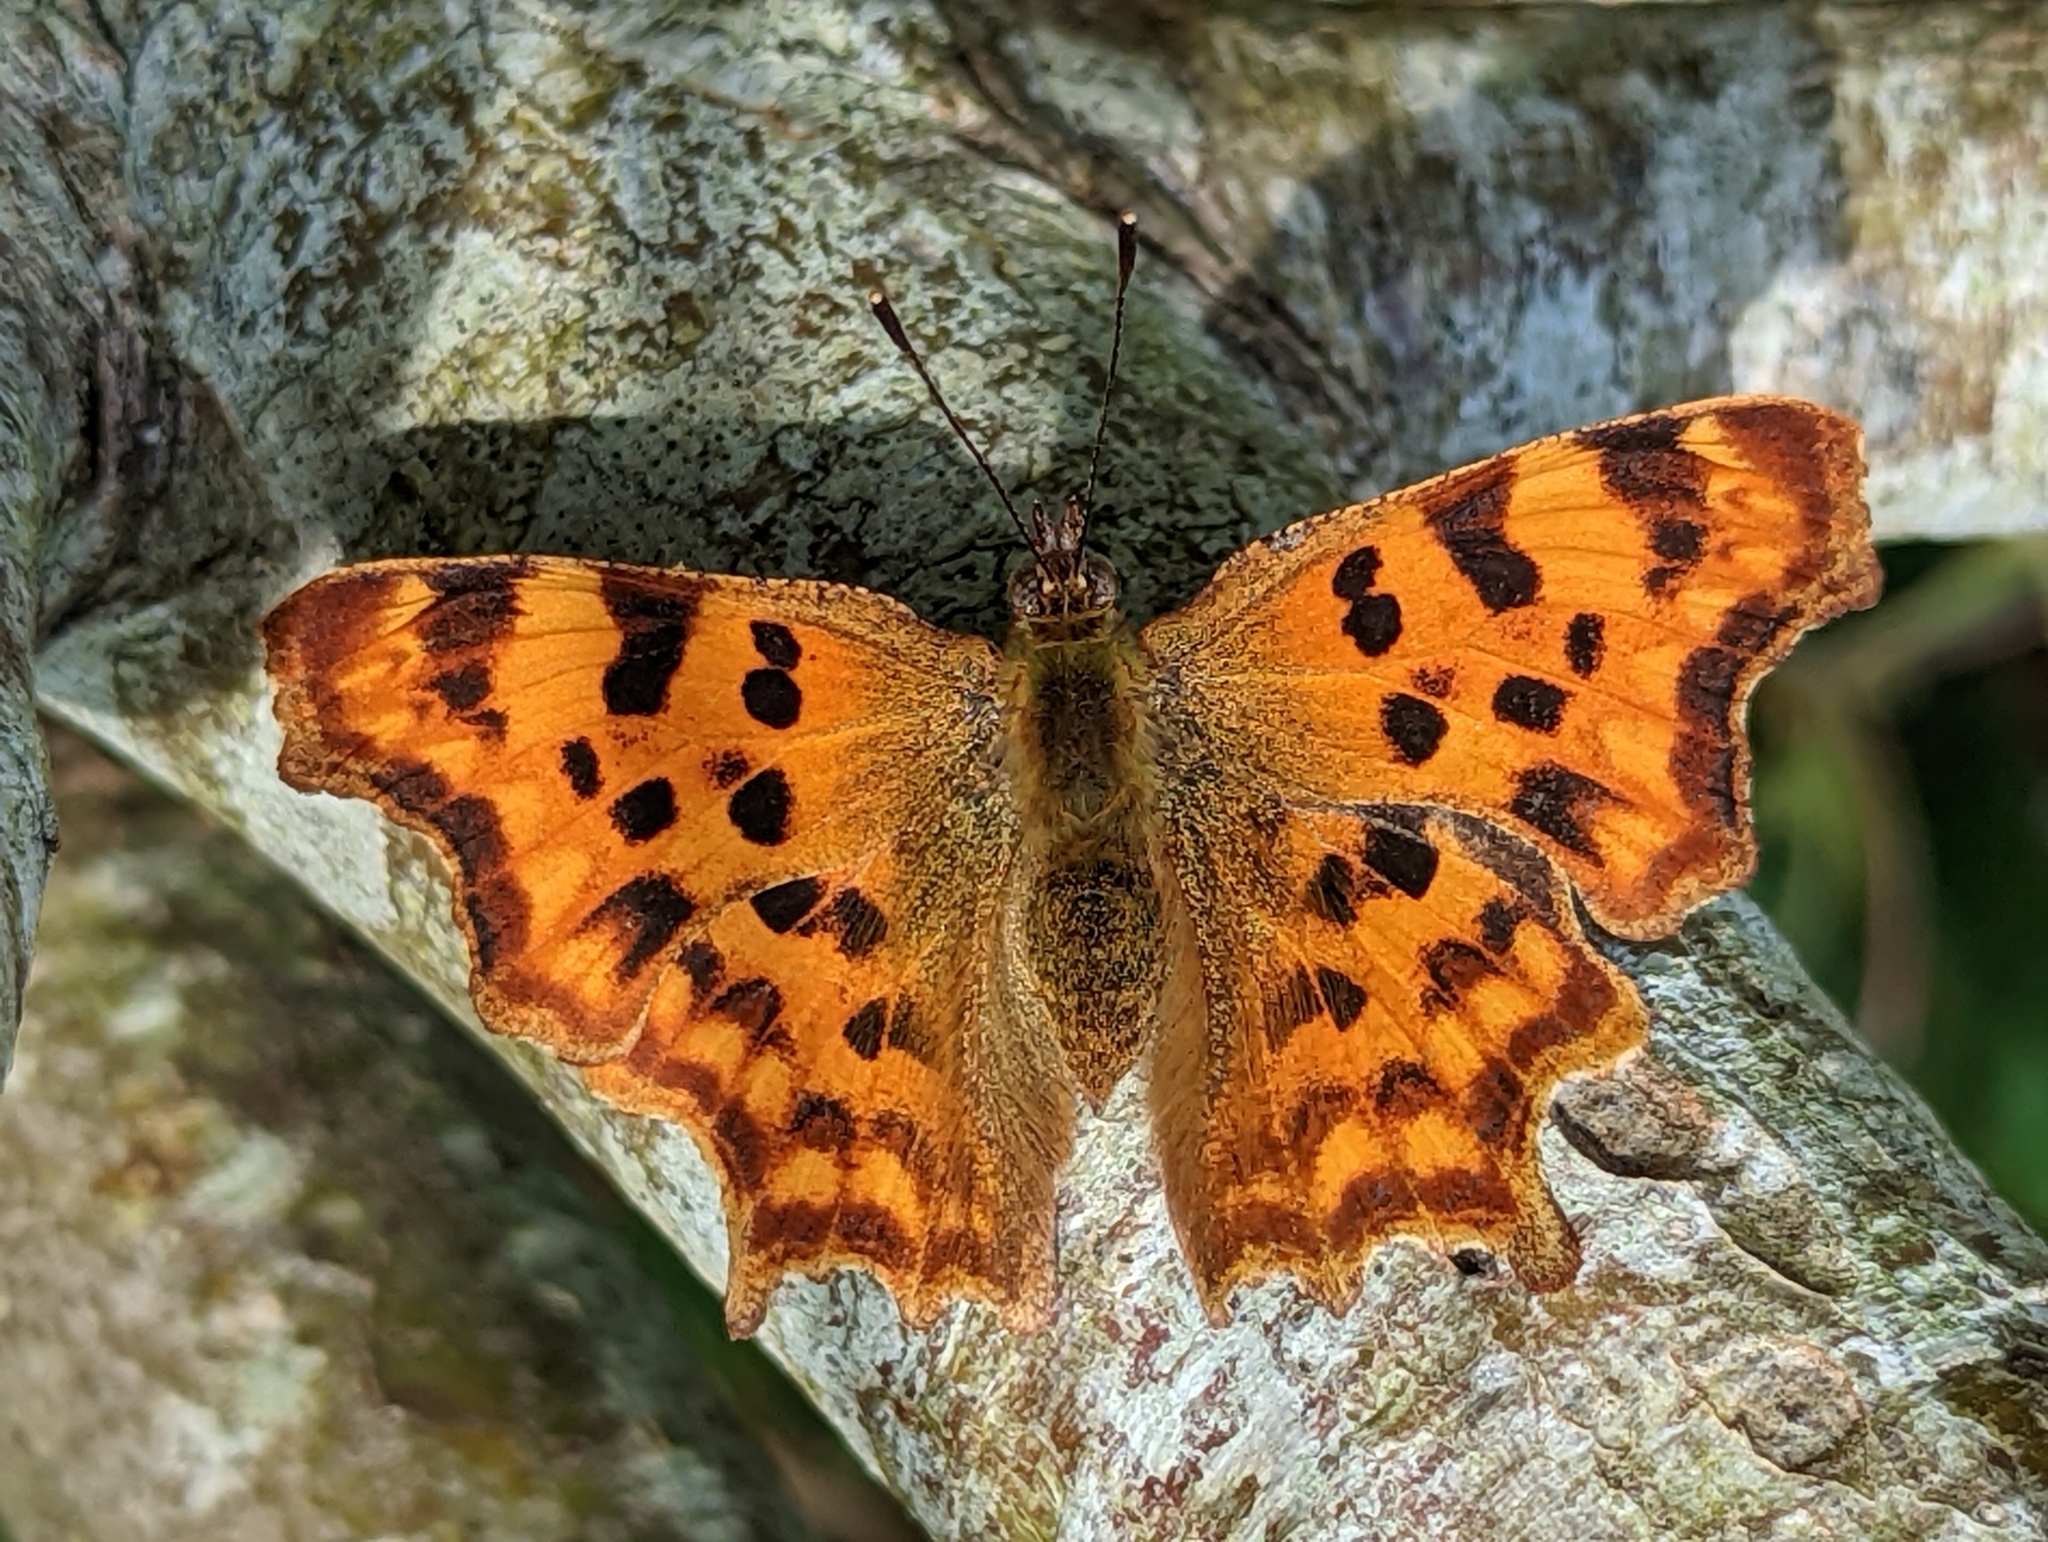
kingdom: Animalia
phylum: Arthropoda
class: Insecta
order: Lepidoptera
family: Nymphalidae
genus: Polygonia
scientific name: Polygonia c-album
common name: Comma
